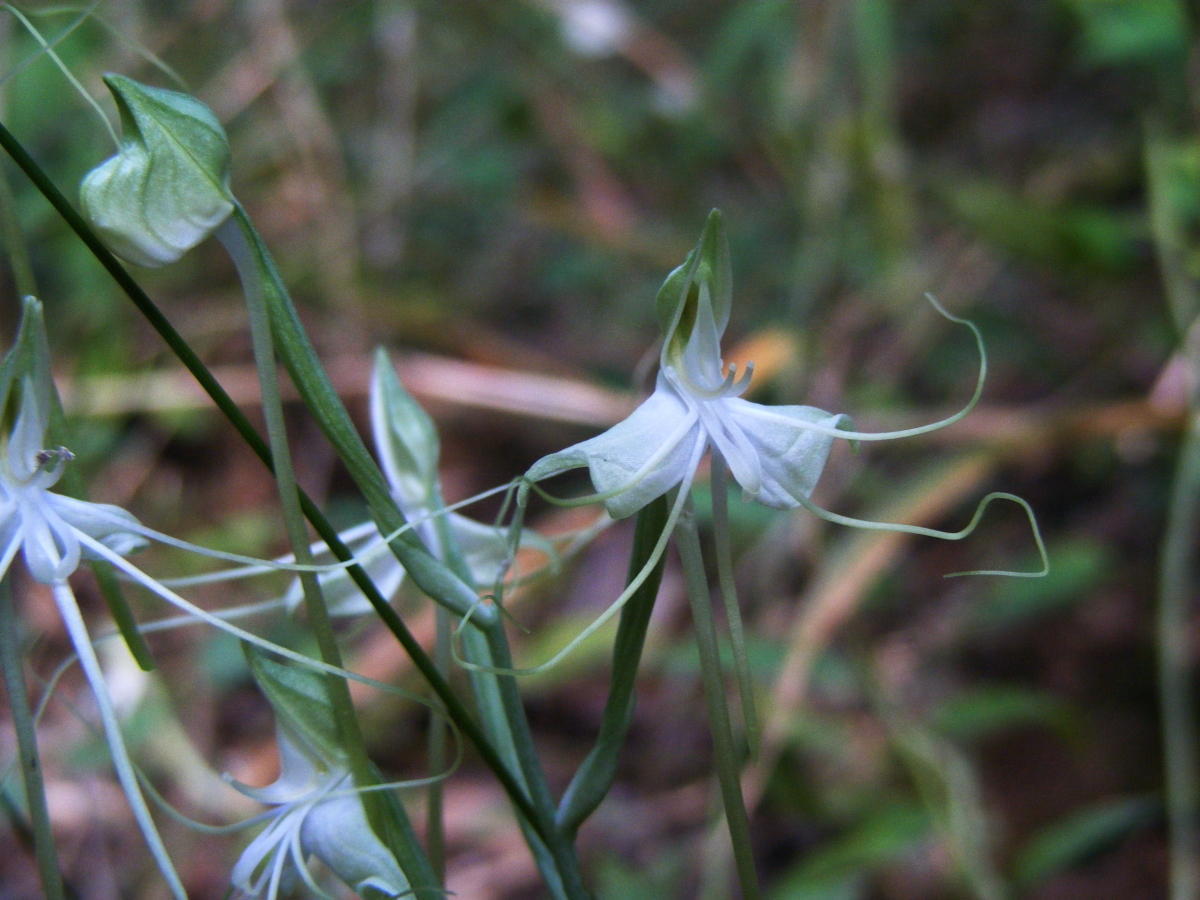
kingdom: Plantae
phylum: Tracheophyta
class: Liliopsida
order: Asparagales
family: Orchidaceae
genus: Bonatea
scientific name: Bonatea pulchella
